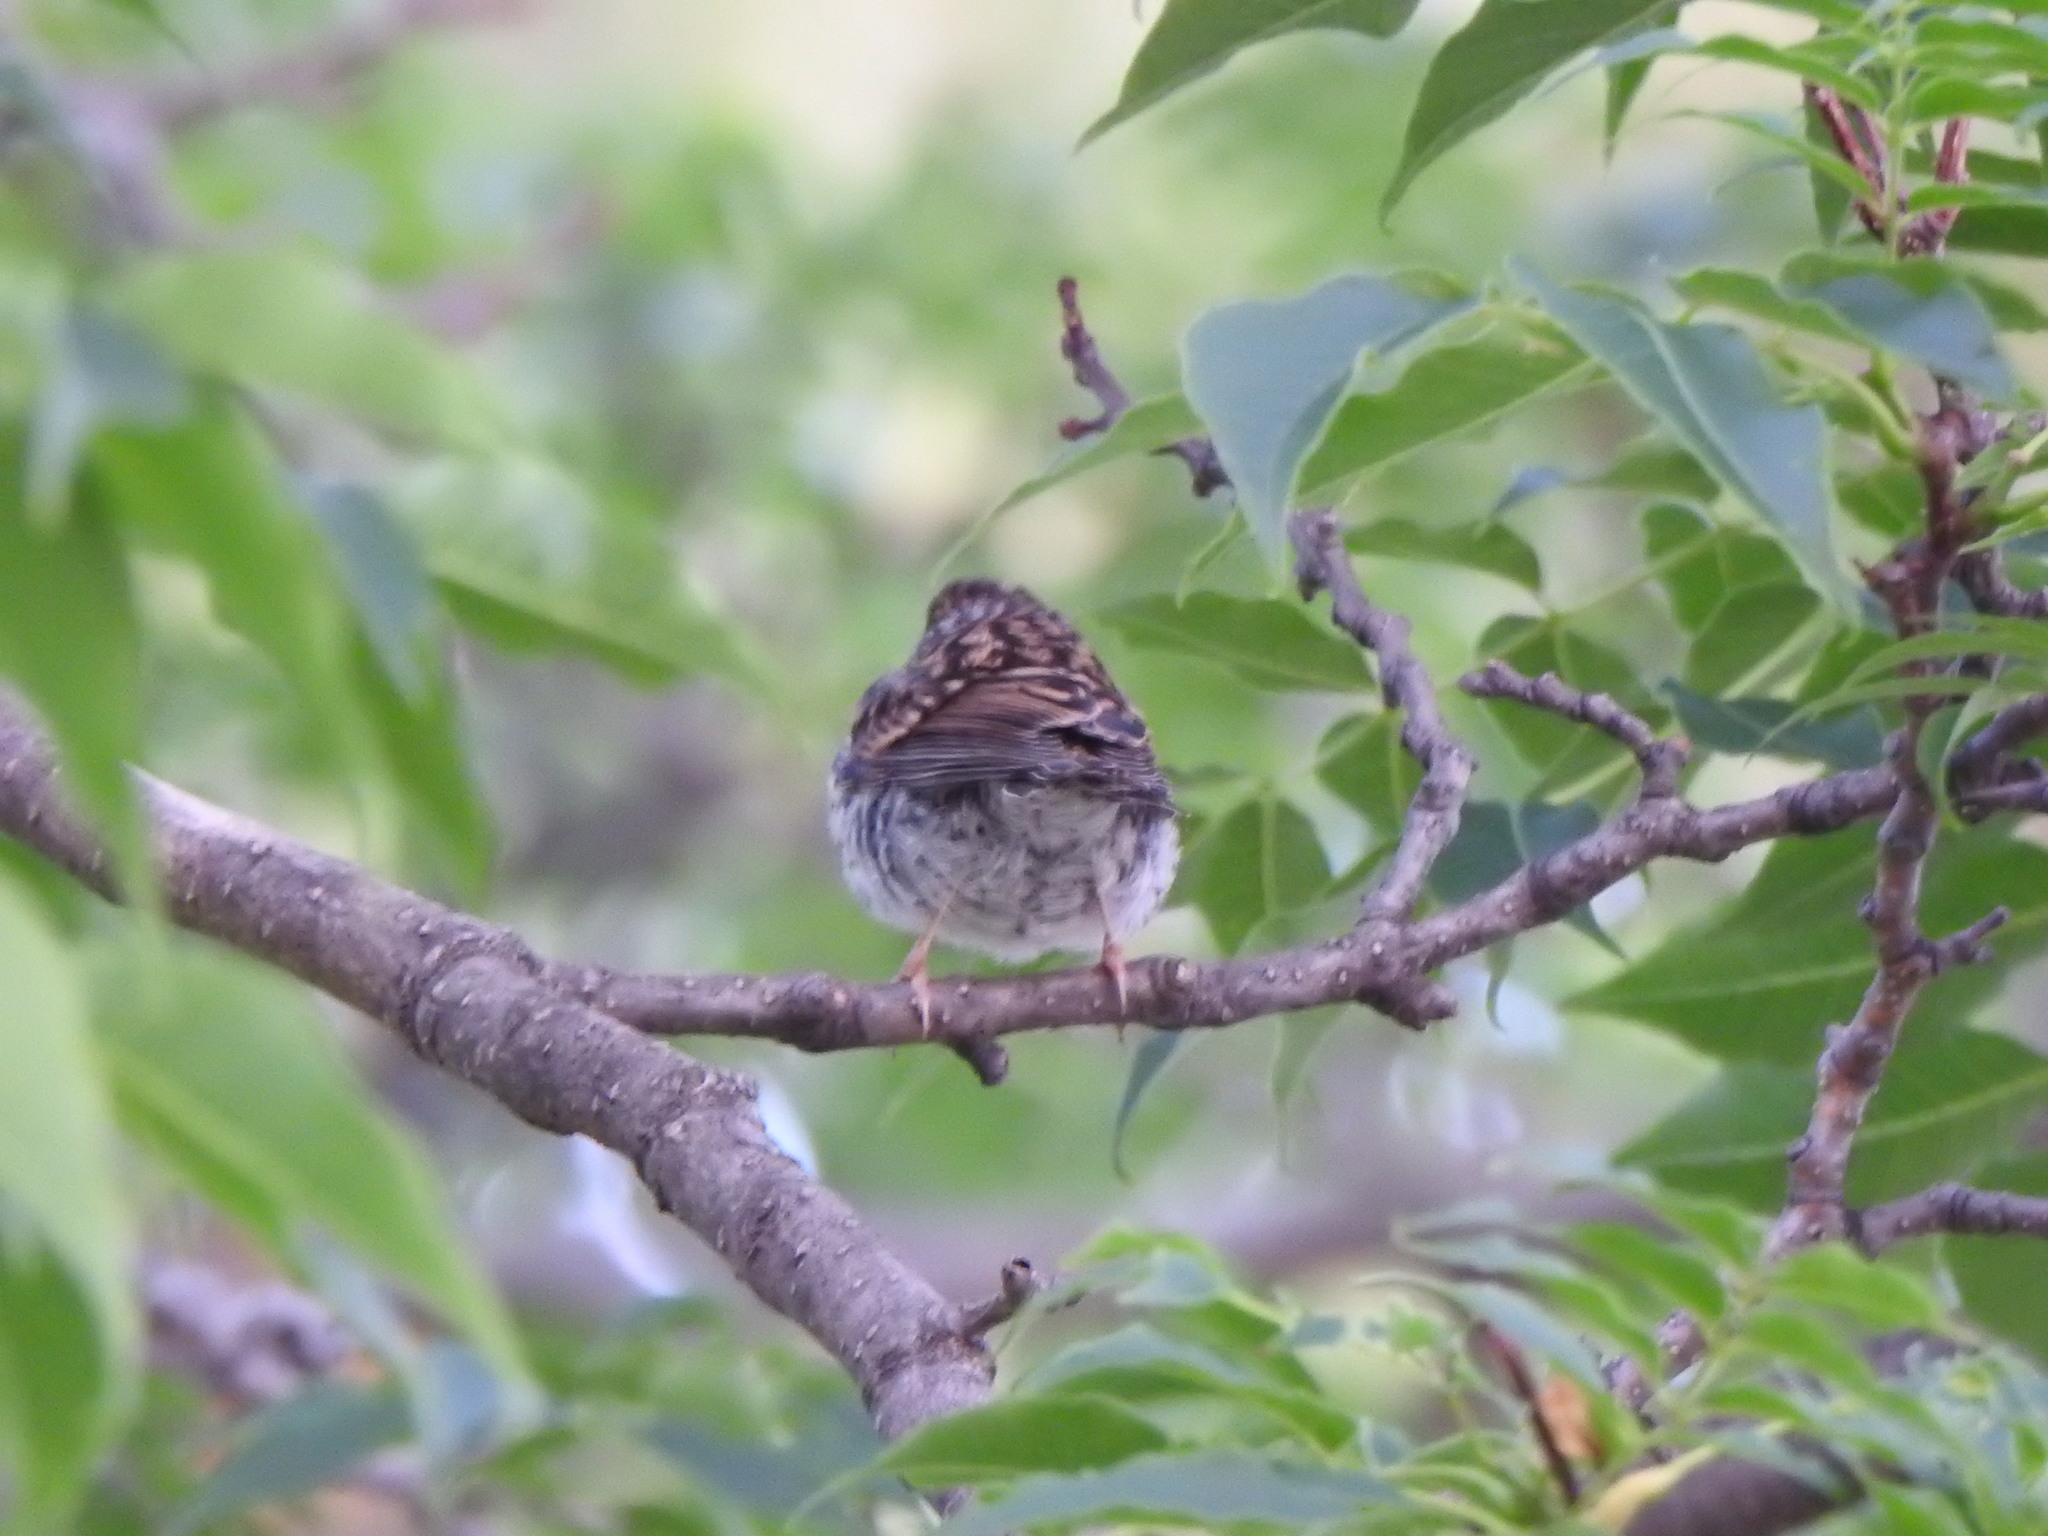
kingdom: Animalia
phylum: Chordata
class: Aves
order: Passeriformes
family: Passerellidae
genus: Spizella
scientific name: Spizella passerina
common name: Chipping sparrow
